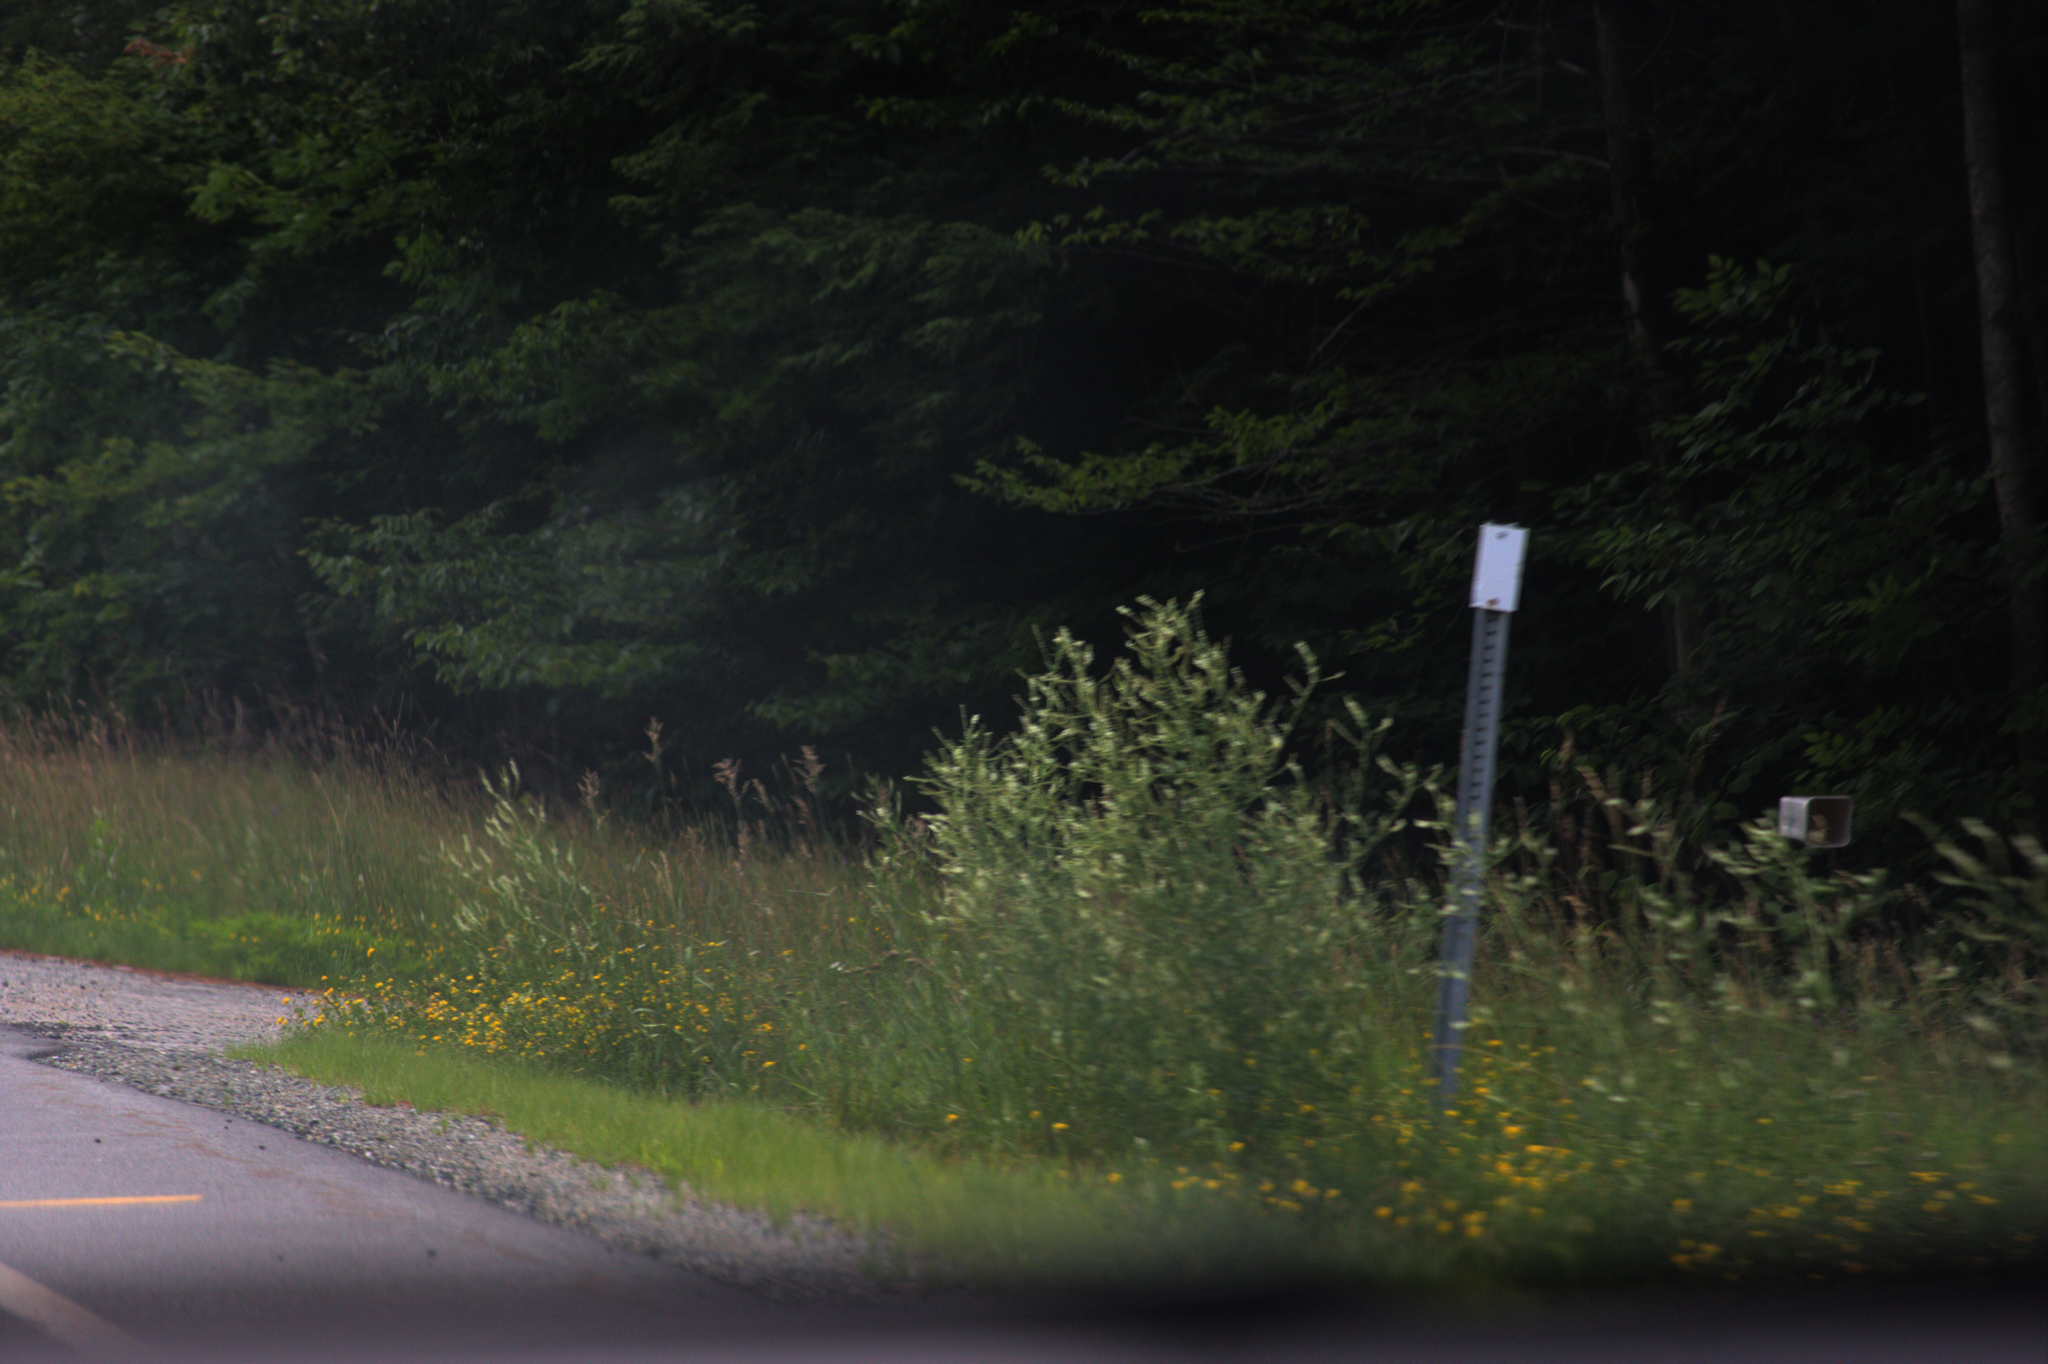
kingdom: Plantae
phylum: Tracheophyta
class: Magnoliopsida
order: Fabales
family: Fabaceae
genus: Melilotus
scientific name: Melilotus albus
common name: White melilot
